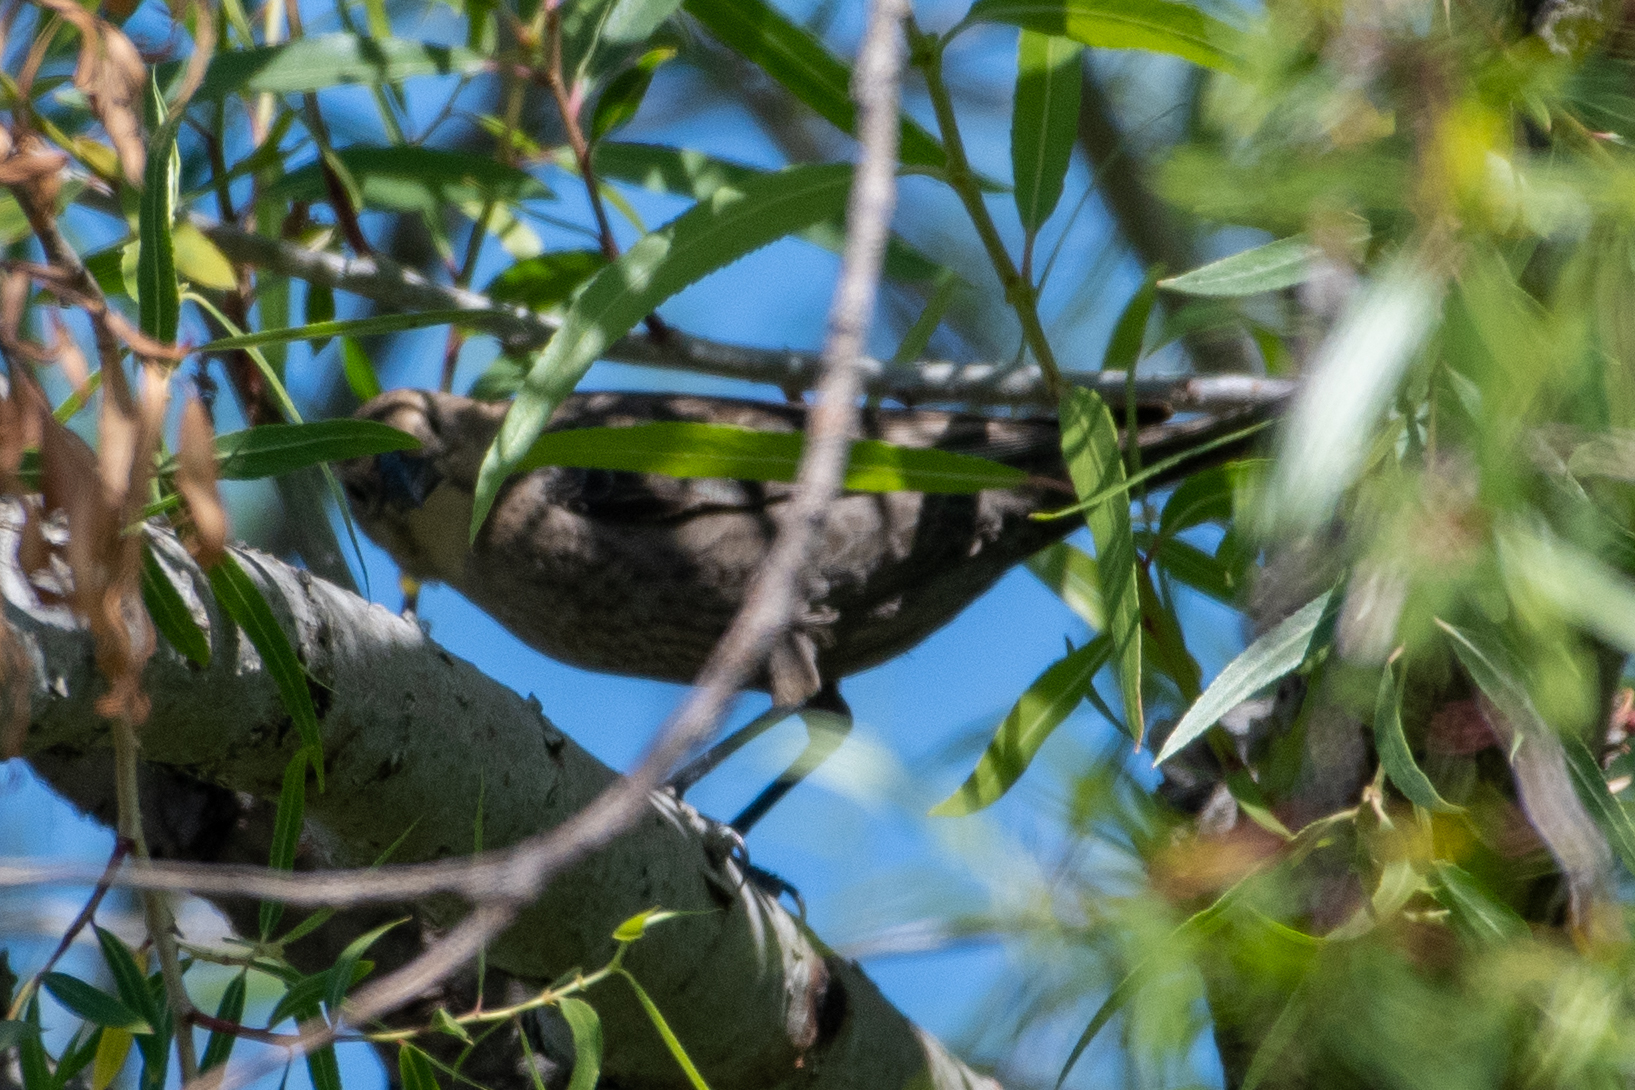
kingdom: Animalia
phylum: Chordata
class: Aves
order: Passeriformes
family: Icteridae
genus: Molothrus
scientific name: Molothrus ater
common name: Brown-headed cowbird
